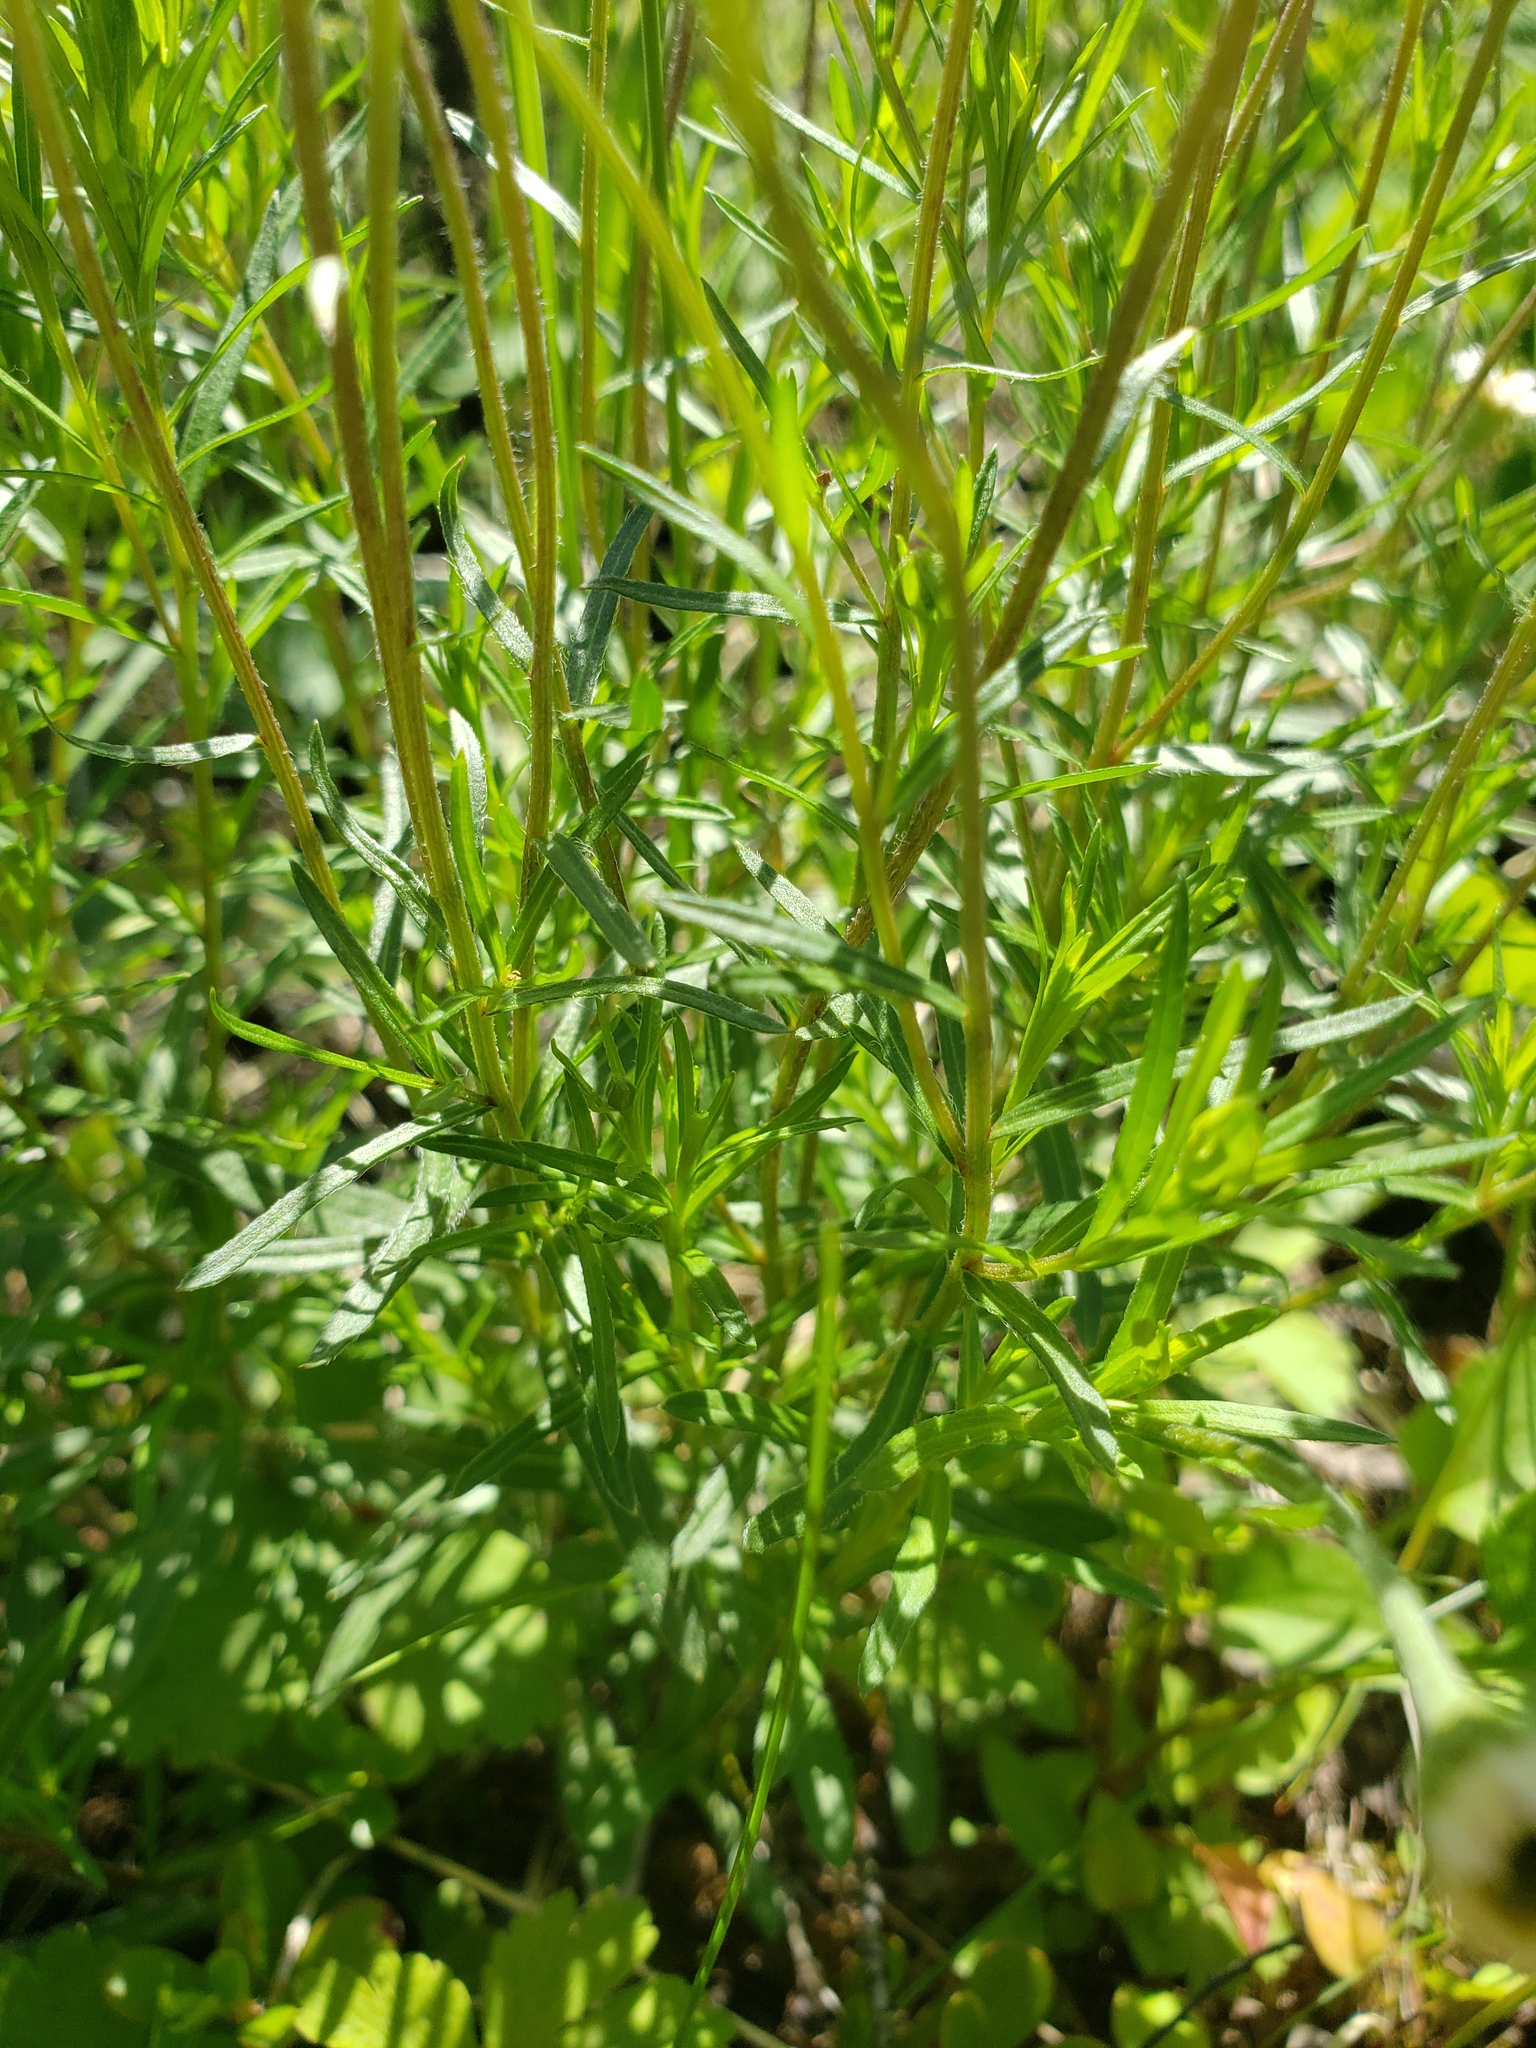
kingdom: Plantae
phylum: Tracheophyta
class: Magnoliopsida
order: Asterales
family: Asteraceae
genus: Erigeron
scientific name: Erigeron hyssopifolius
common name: Daisy fleabane
